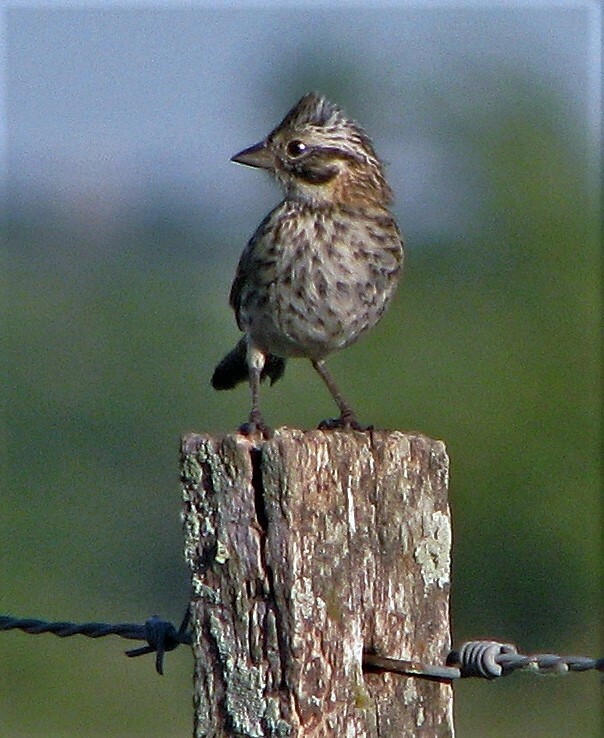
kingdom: Animalia
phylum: Chordata
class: Aves
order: Passeriformes
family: Passerellidae
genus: Zonotrichia
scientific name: Zonotrichia capensis
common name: Rufous-collared sparrow
